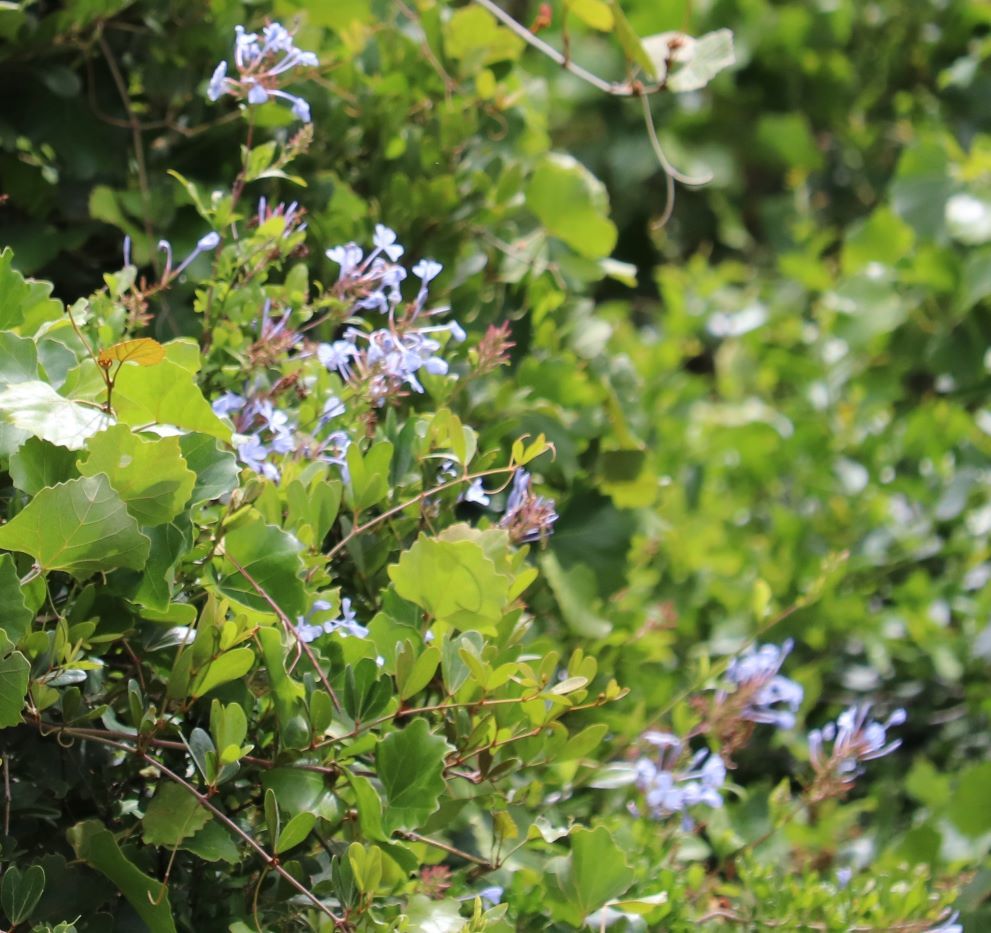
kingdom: Plantae
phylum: Tracheophyta
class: Magnoliopsida
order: Caryophyllales
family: Plumbaginaceae
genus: Plumbago
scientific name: Plumbago auriculata
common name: Cape leadwort
